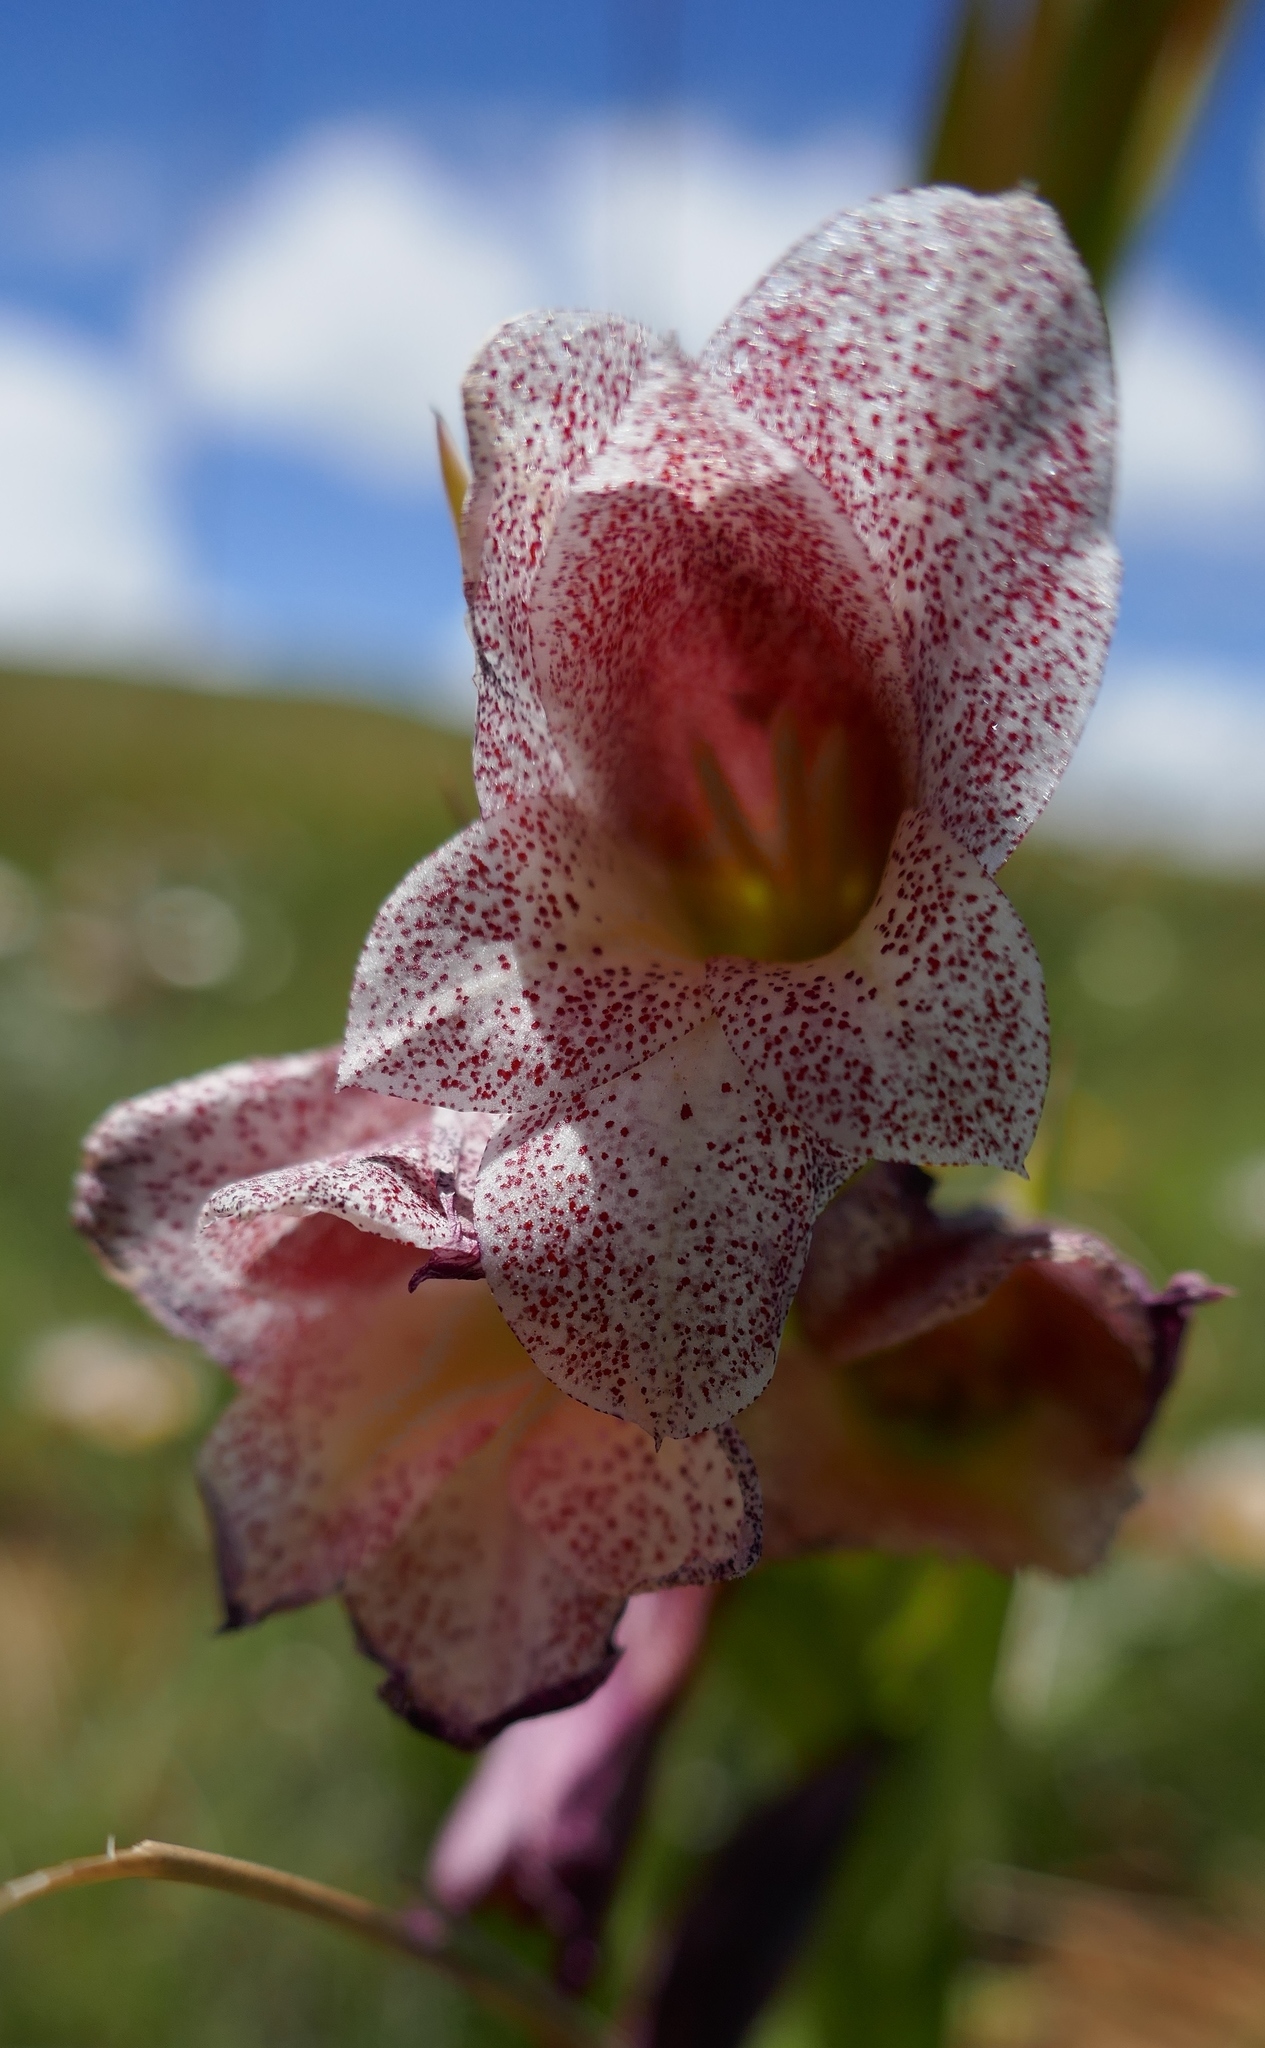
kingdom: Plantae
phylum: Tracheophyta
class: Liliopsida
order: Asparagales
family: Iridaceae
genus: Gladiolus
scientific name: Gladiolus ecklonii
